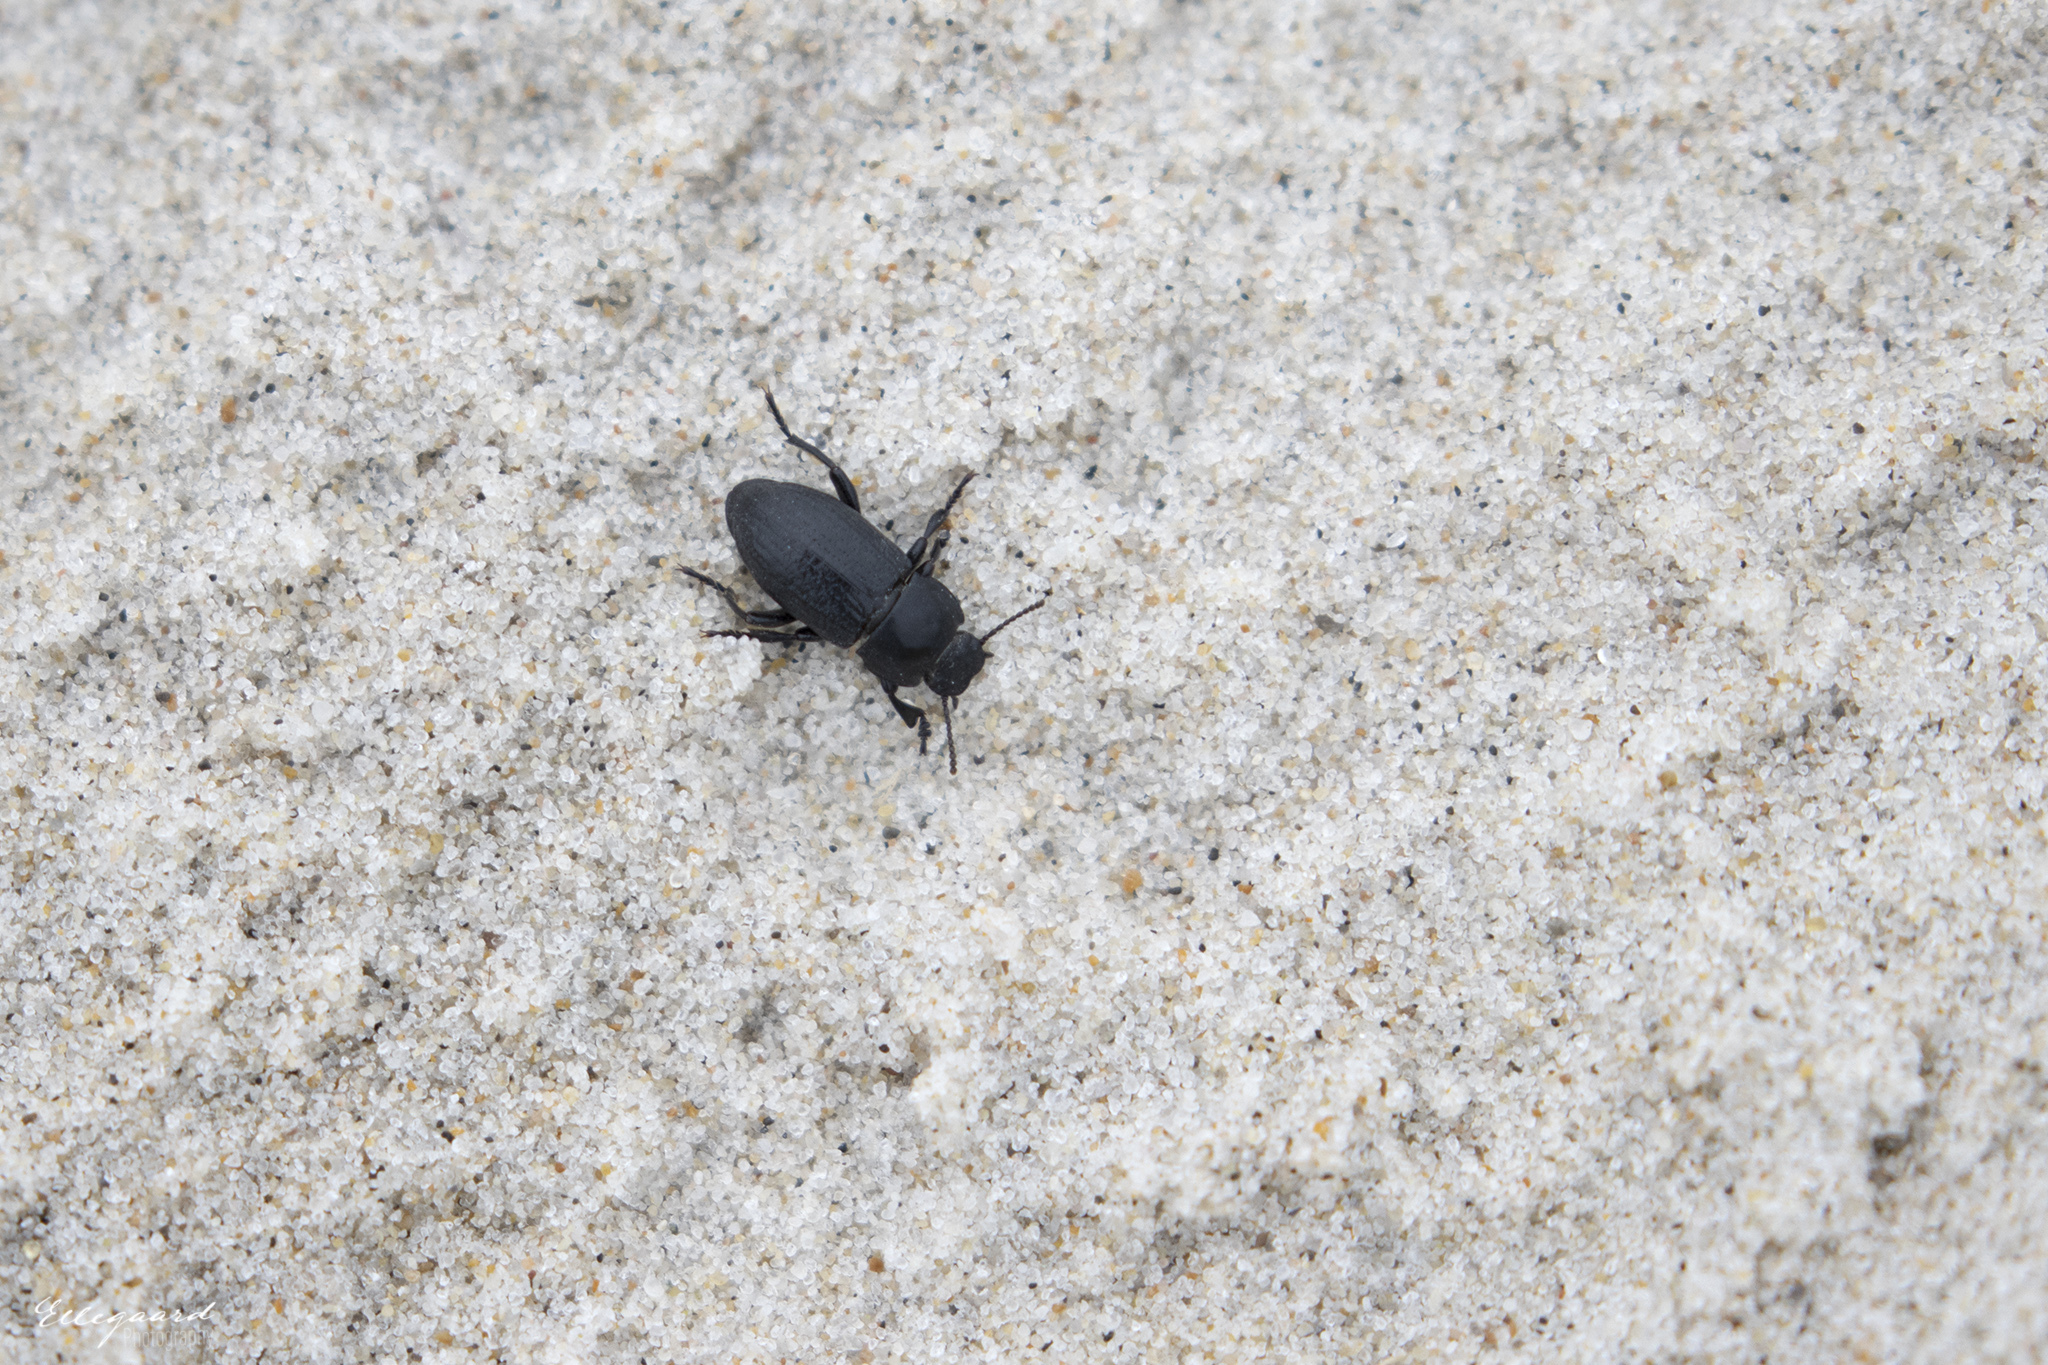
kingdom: Animalia
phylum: Arthropoda
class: Insecta
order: Coleoptera
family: Tenebrionidae
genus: Phylan
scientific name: Phylan gibbus
